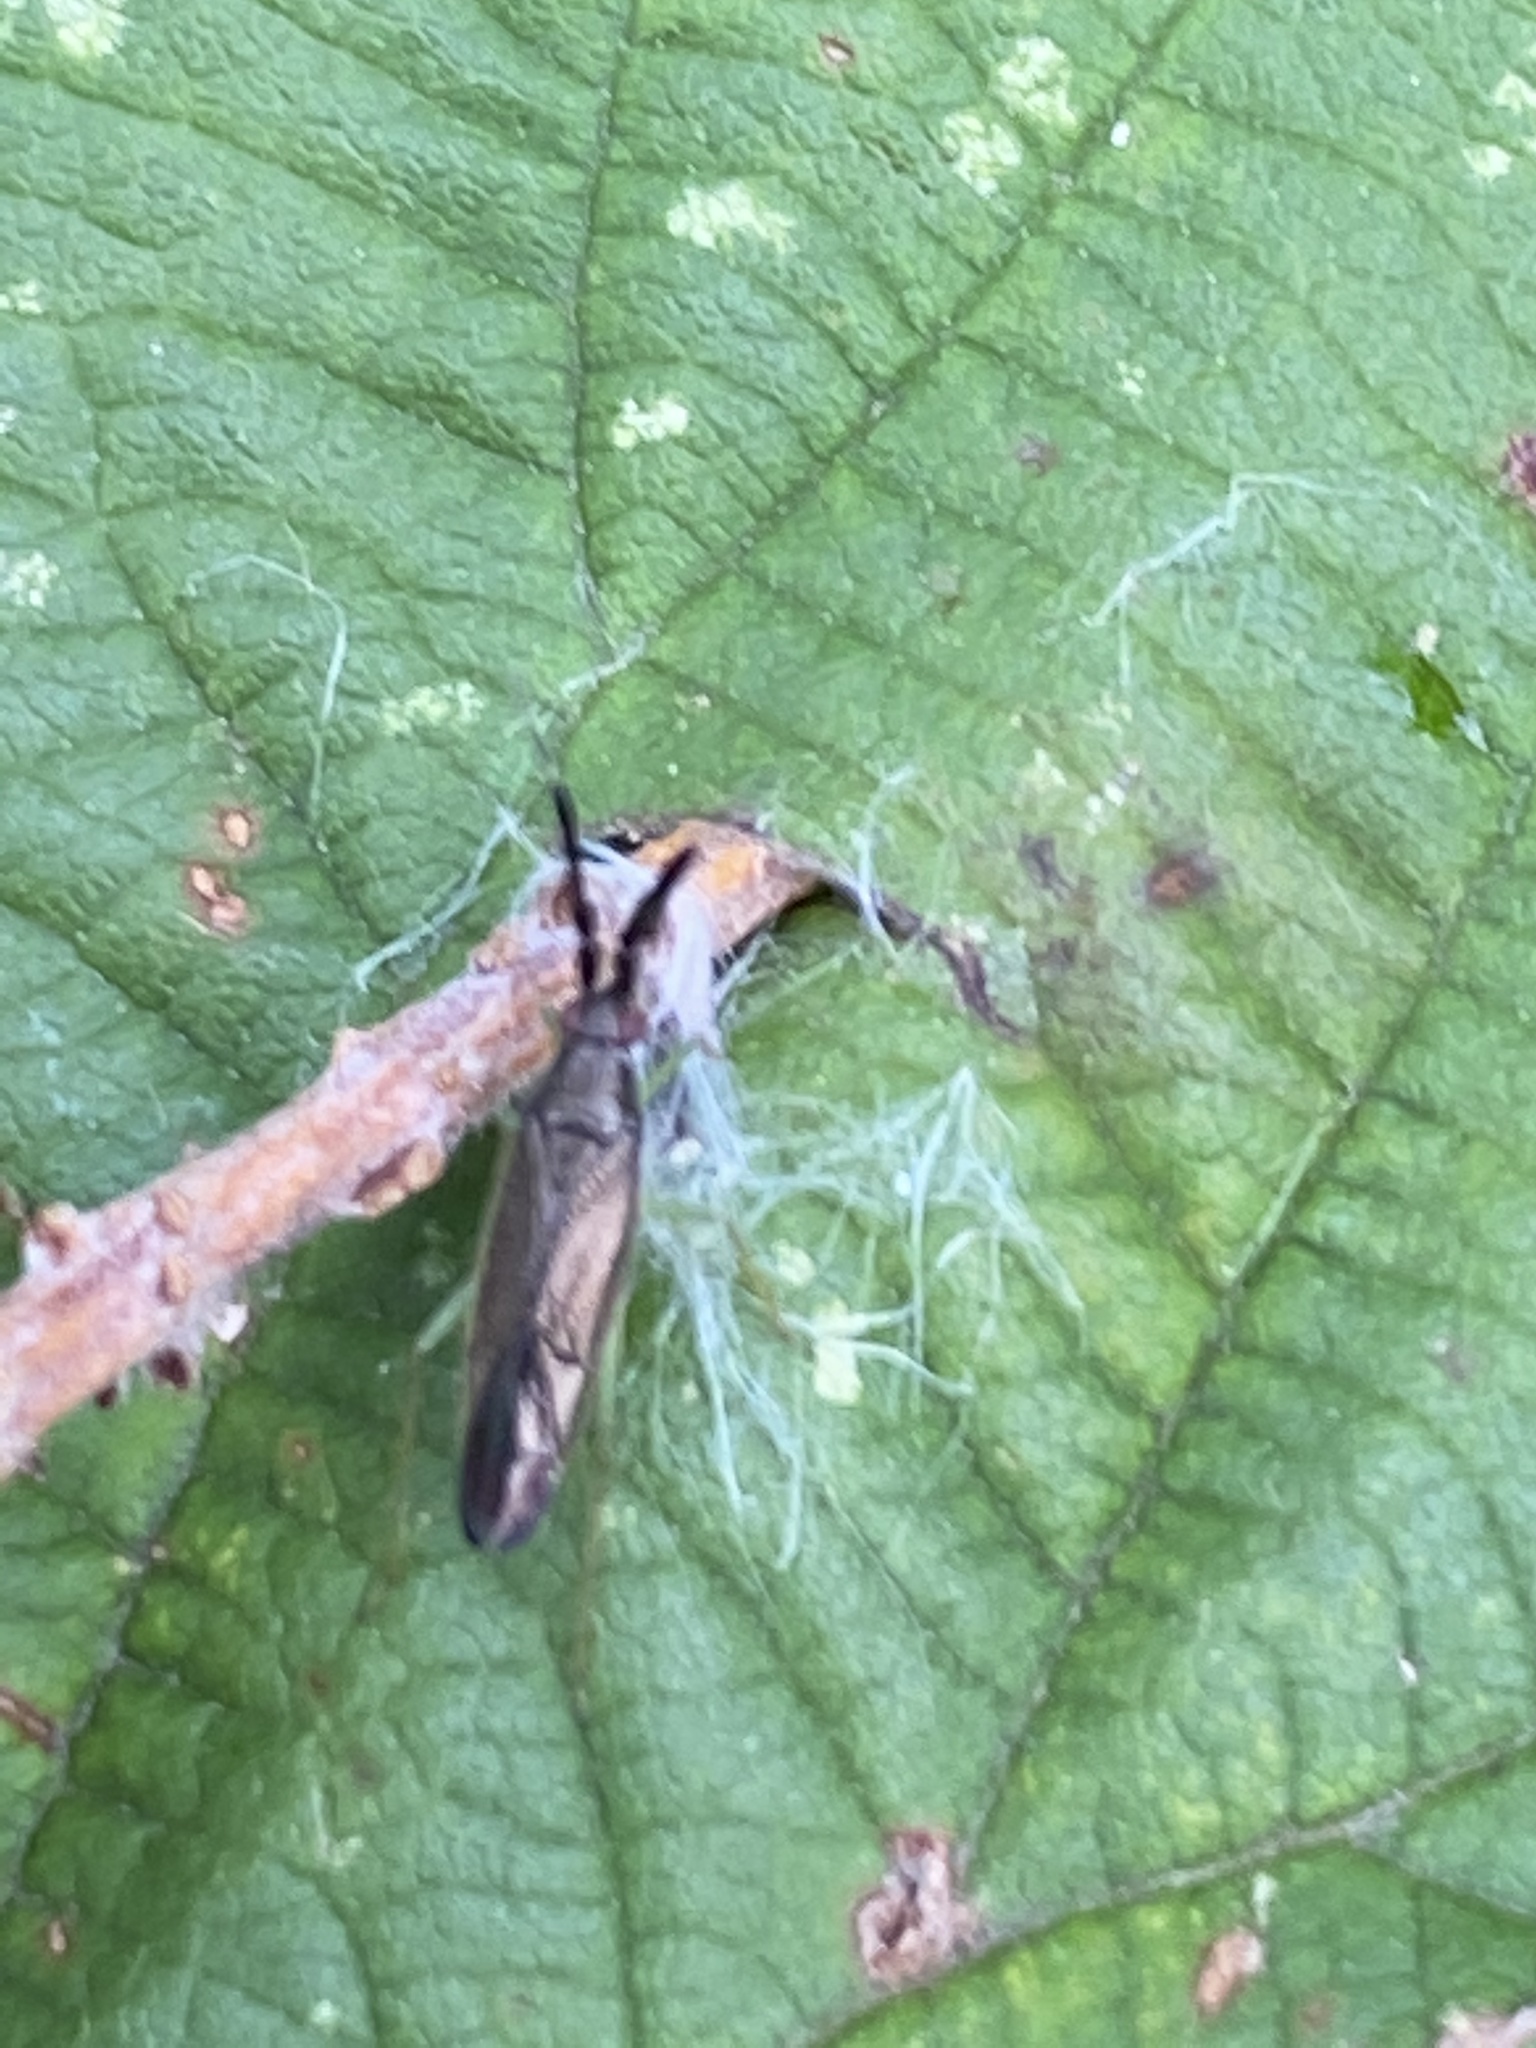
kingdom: Animalia
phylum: Arthropoda
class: Insecta
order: Hemiptera
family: Miridae
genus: Heterotoma
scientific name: Heterotoma planicornis
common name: Plant bug
